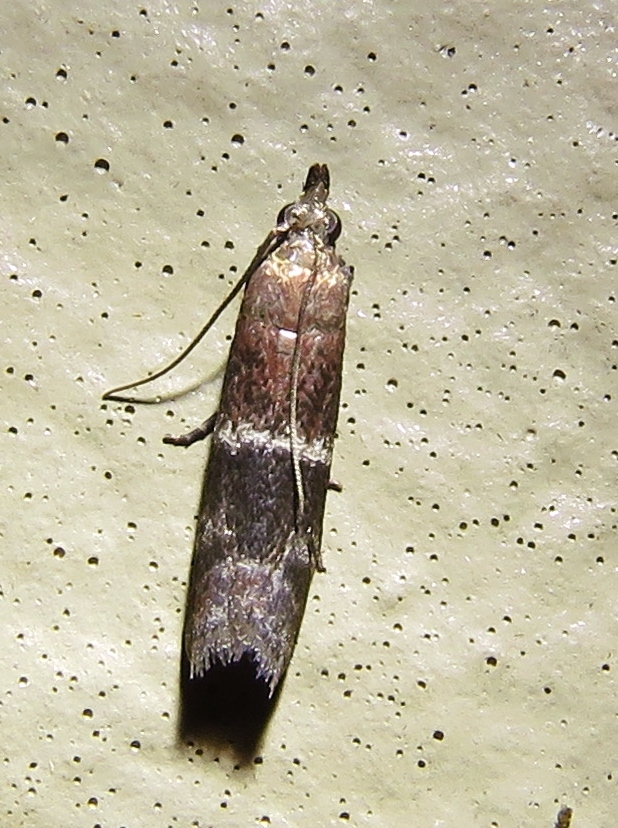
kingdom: Animalia
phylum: Arthropoda
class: Insecta
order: Lepidoptera
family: Pyralidae
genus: Moodna
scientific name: Moodna ostrinella
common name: Darker moodna moth
